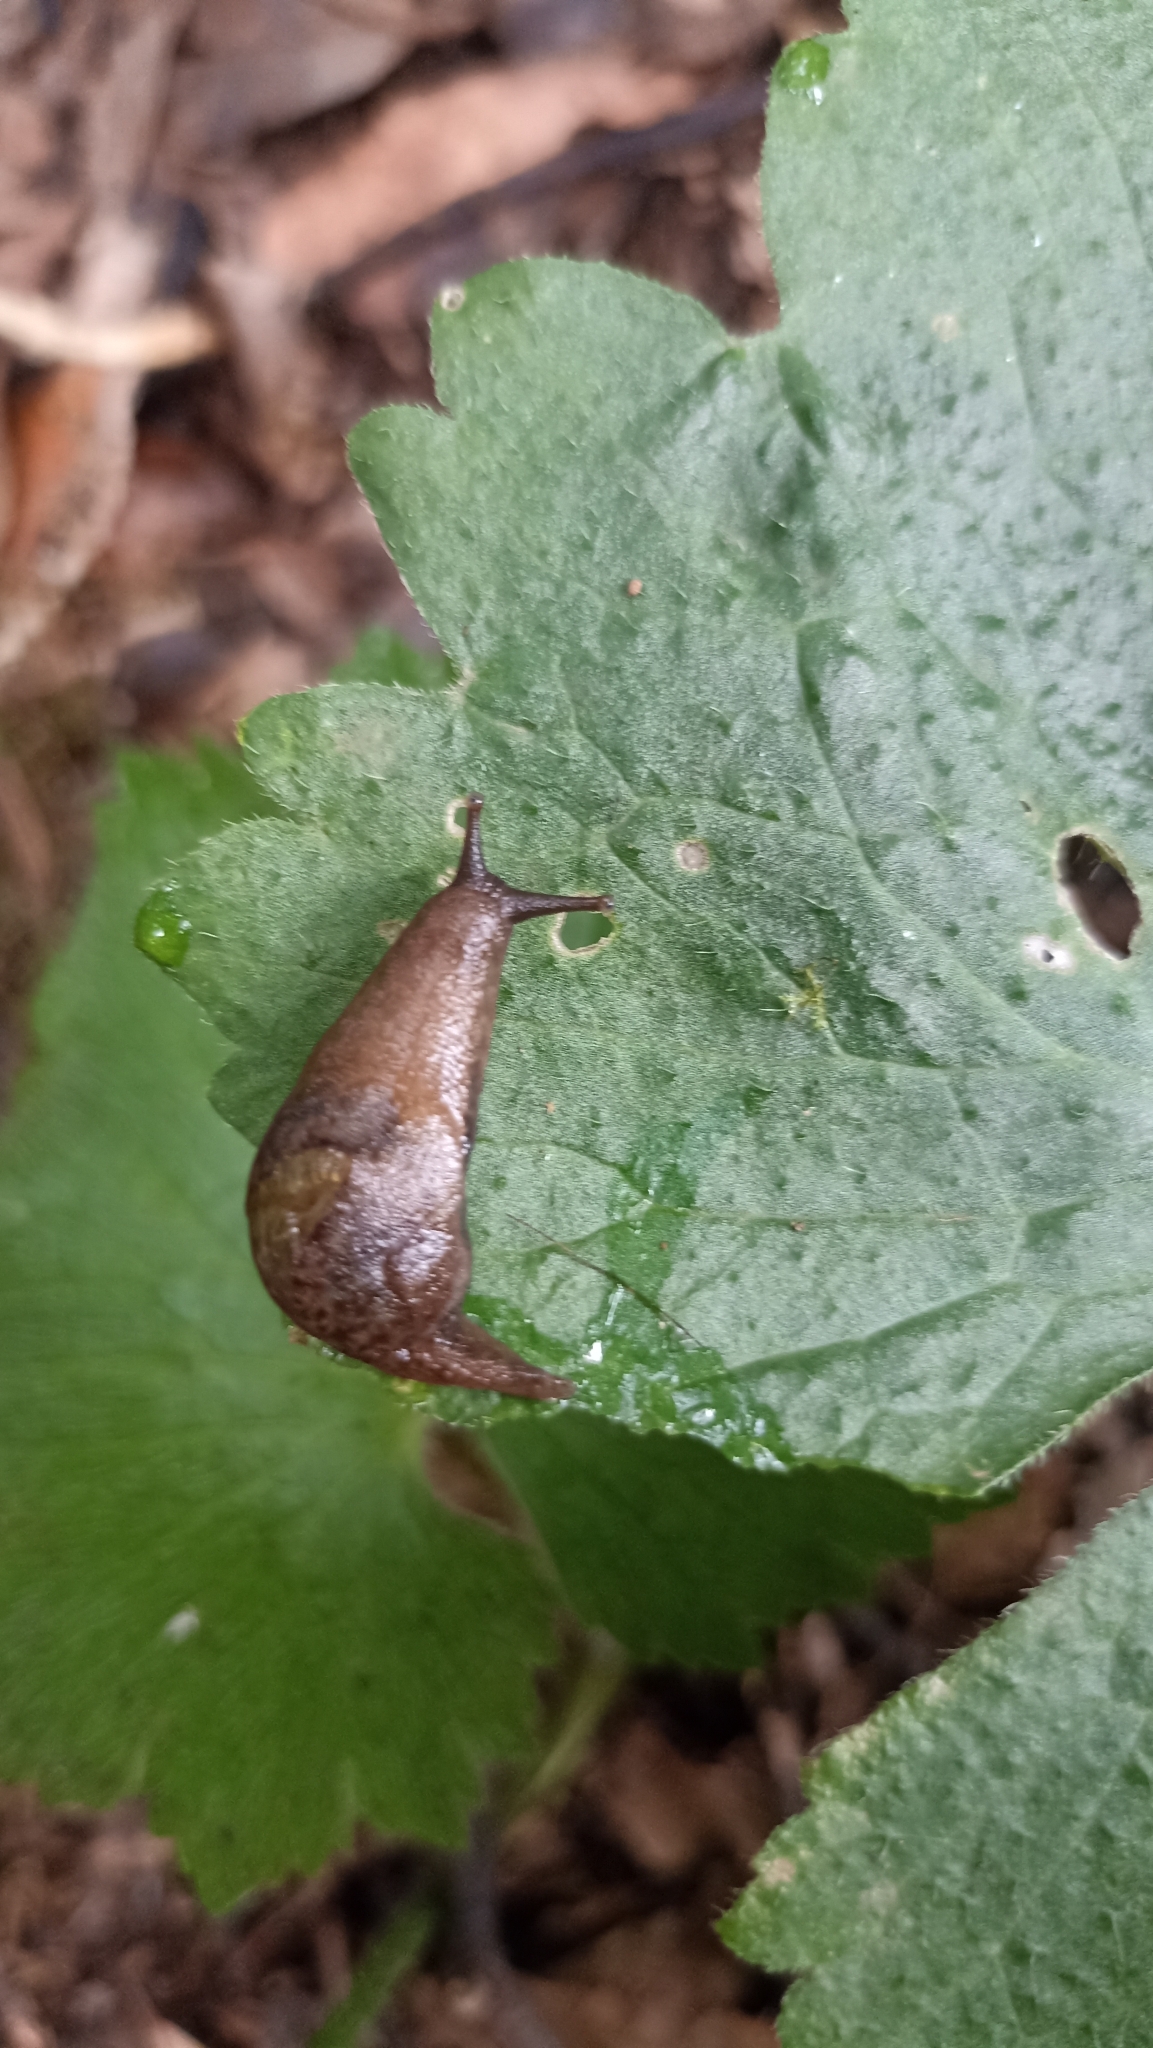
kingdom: Animalia
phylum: Mollusca
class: Gastropoda
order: Stylommatophora
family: Vitrinidae
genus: Insulivitrina
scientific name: Insulivitrina lamarckii
